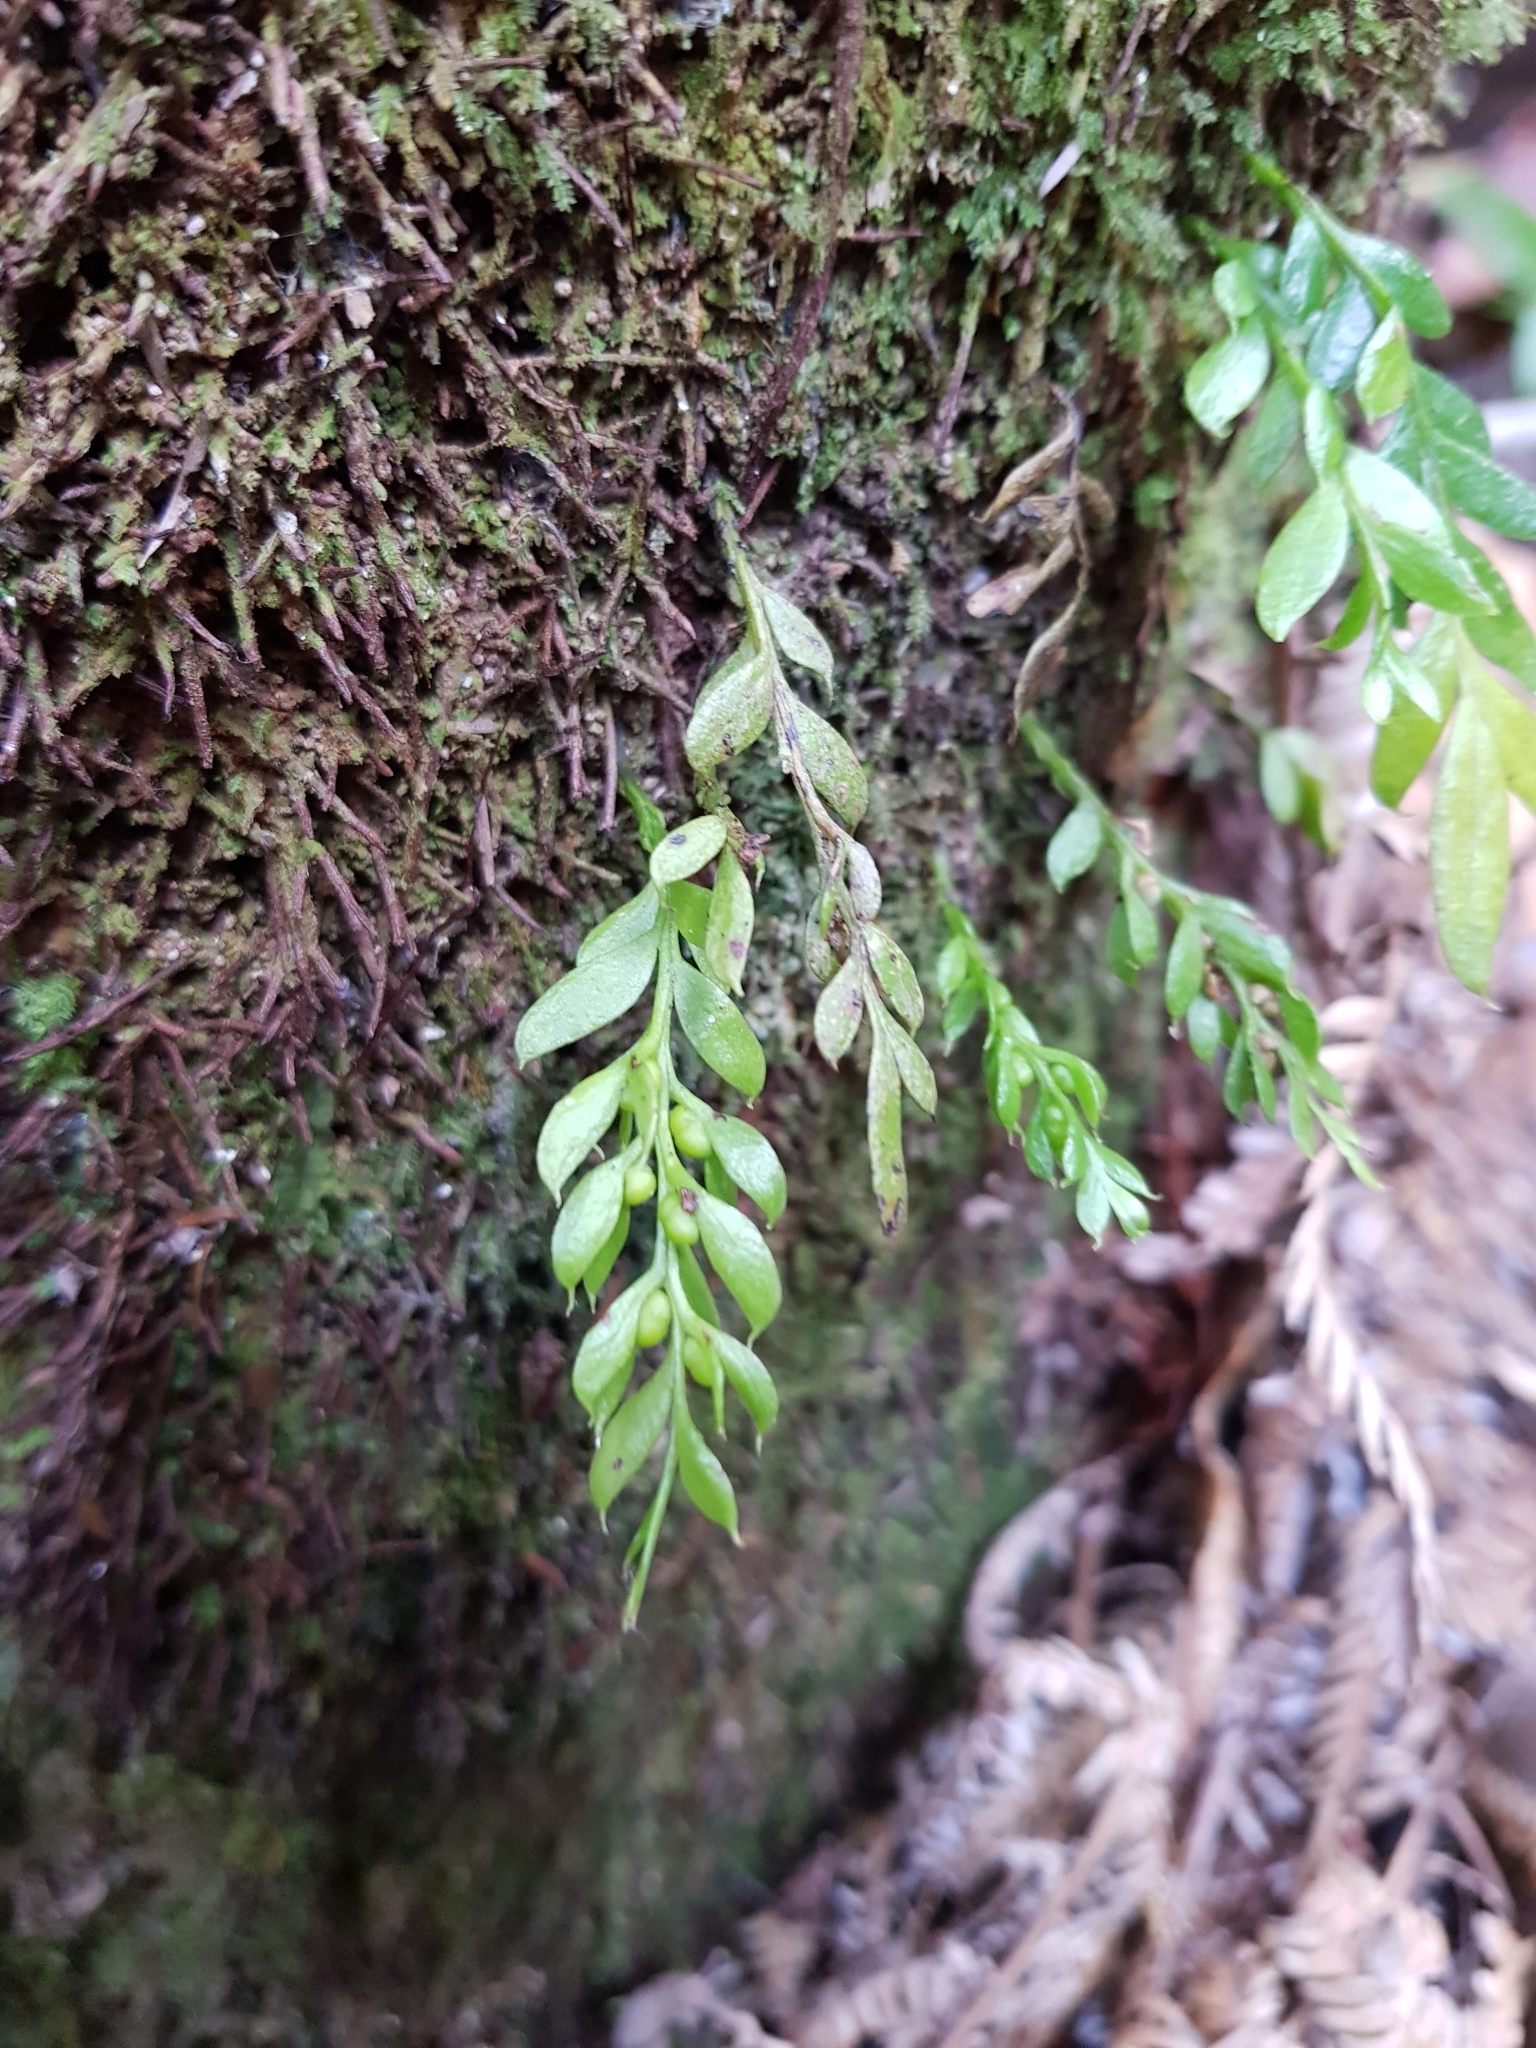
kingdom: Plantae
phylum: Tracheophyta
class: Polypodiopsida
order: Psilotales
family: Psilotaceae
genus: Tmesipteris
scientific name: Tmesipteris lanceolata
